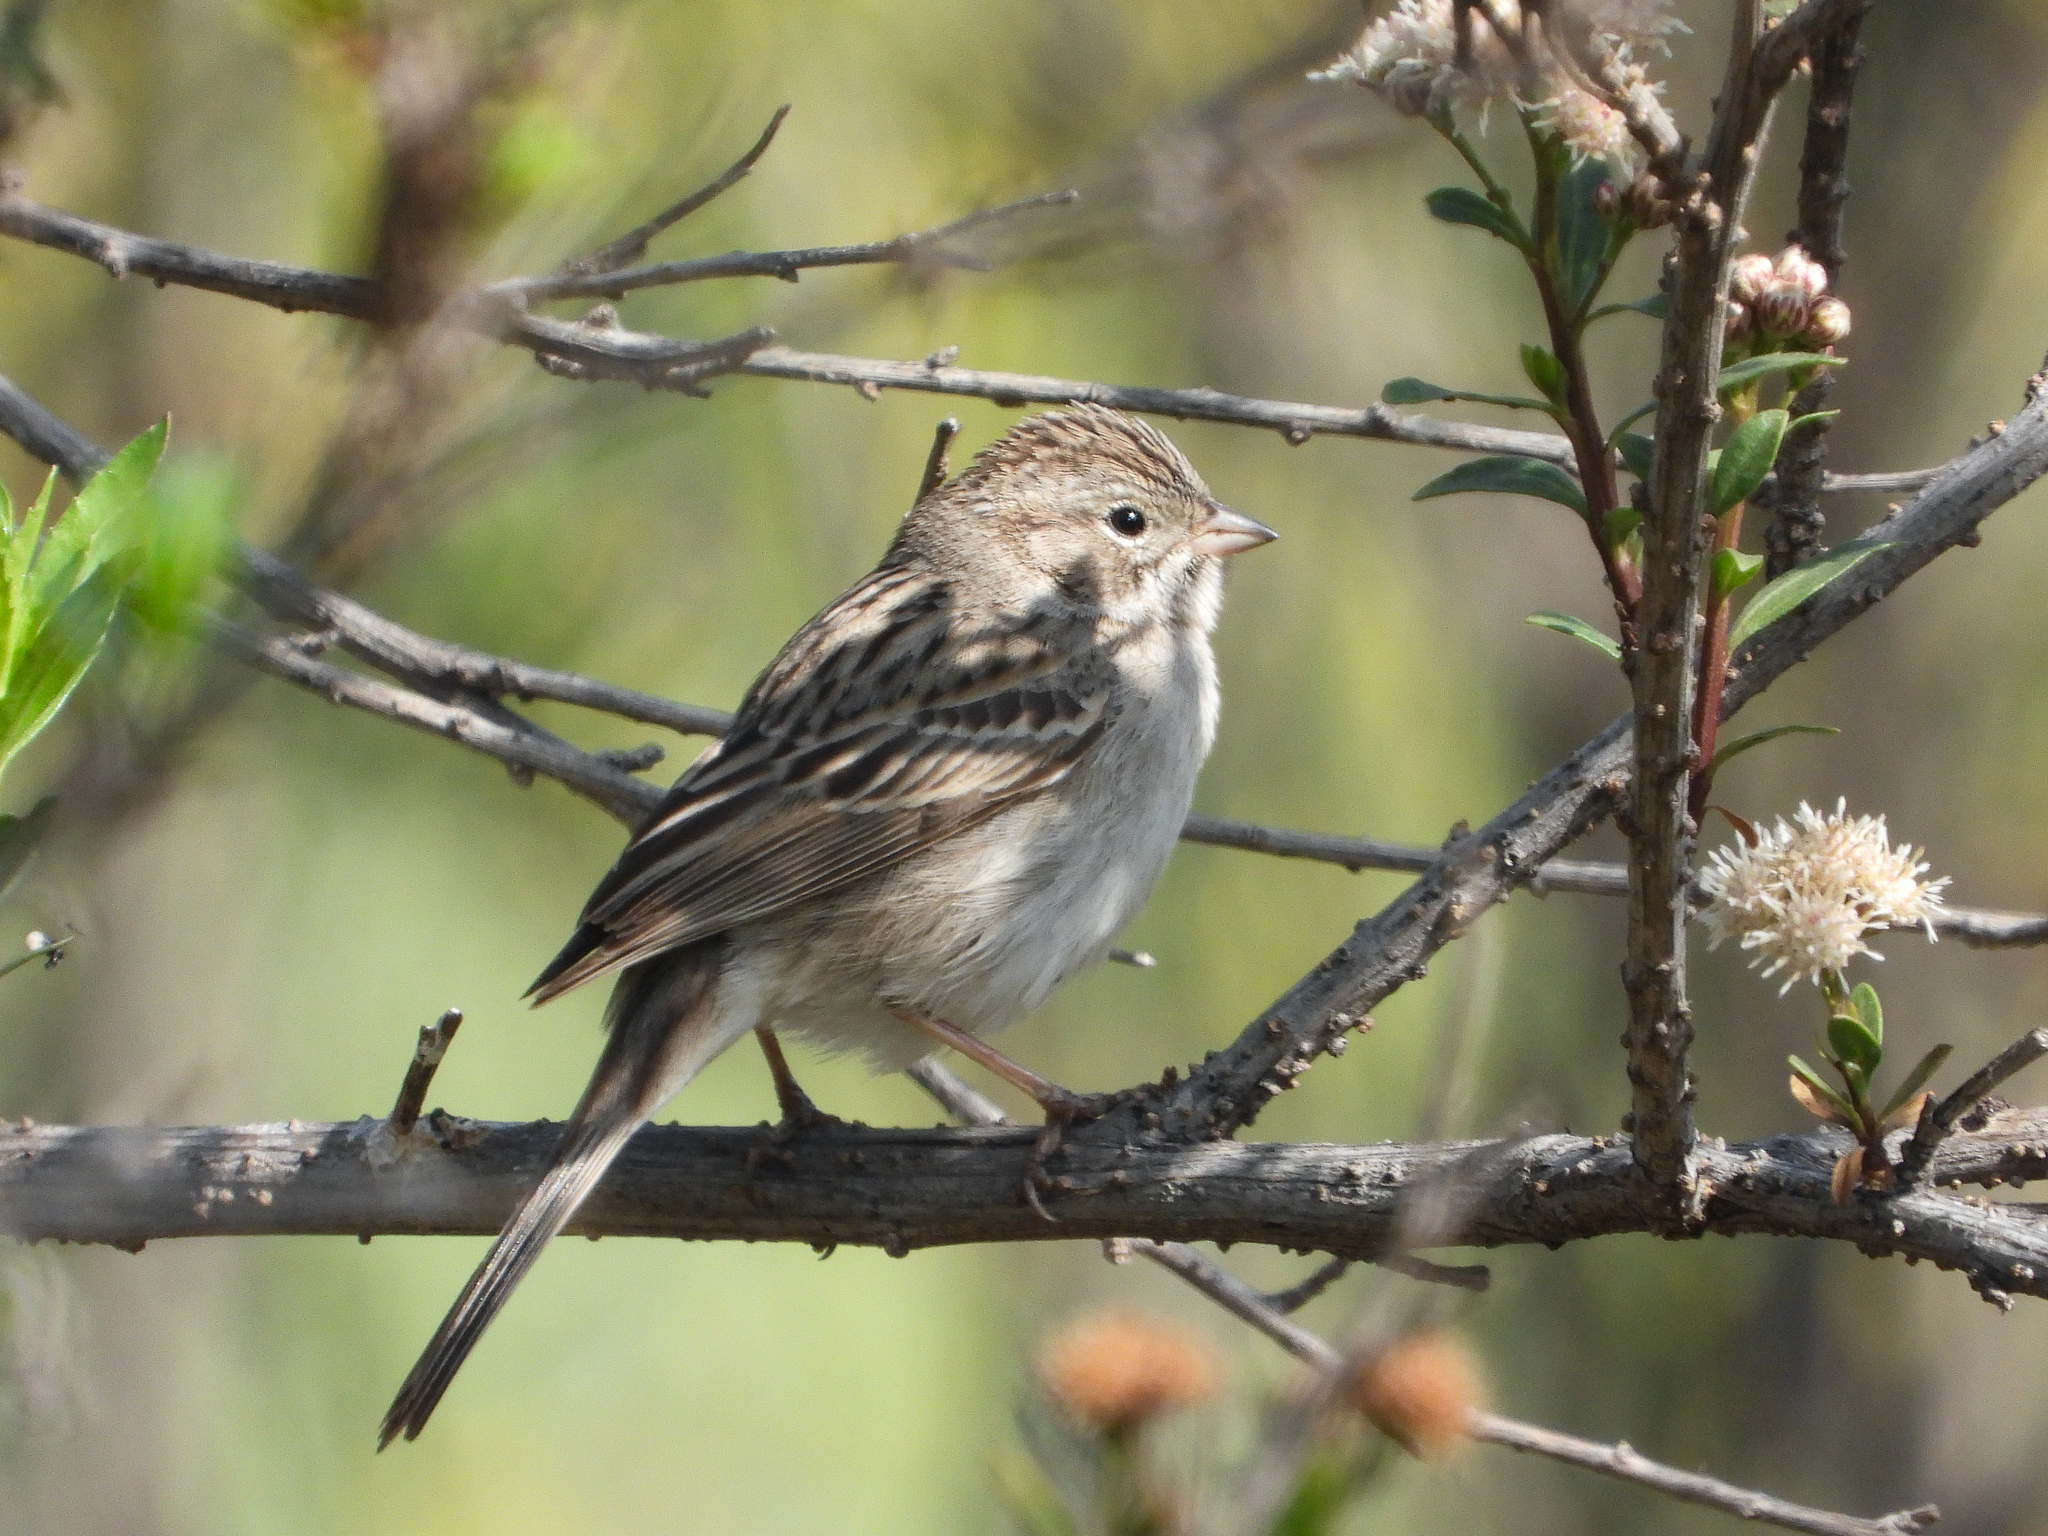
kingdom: Animalia
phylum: Chordata
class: Aves
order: Passeriformes
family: Passerellidae
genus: Spizella
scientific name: Spizella breweri
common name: Brewer's sparrow
